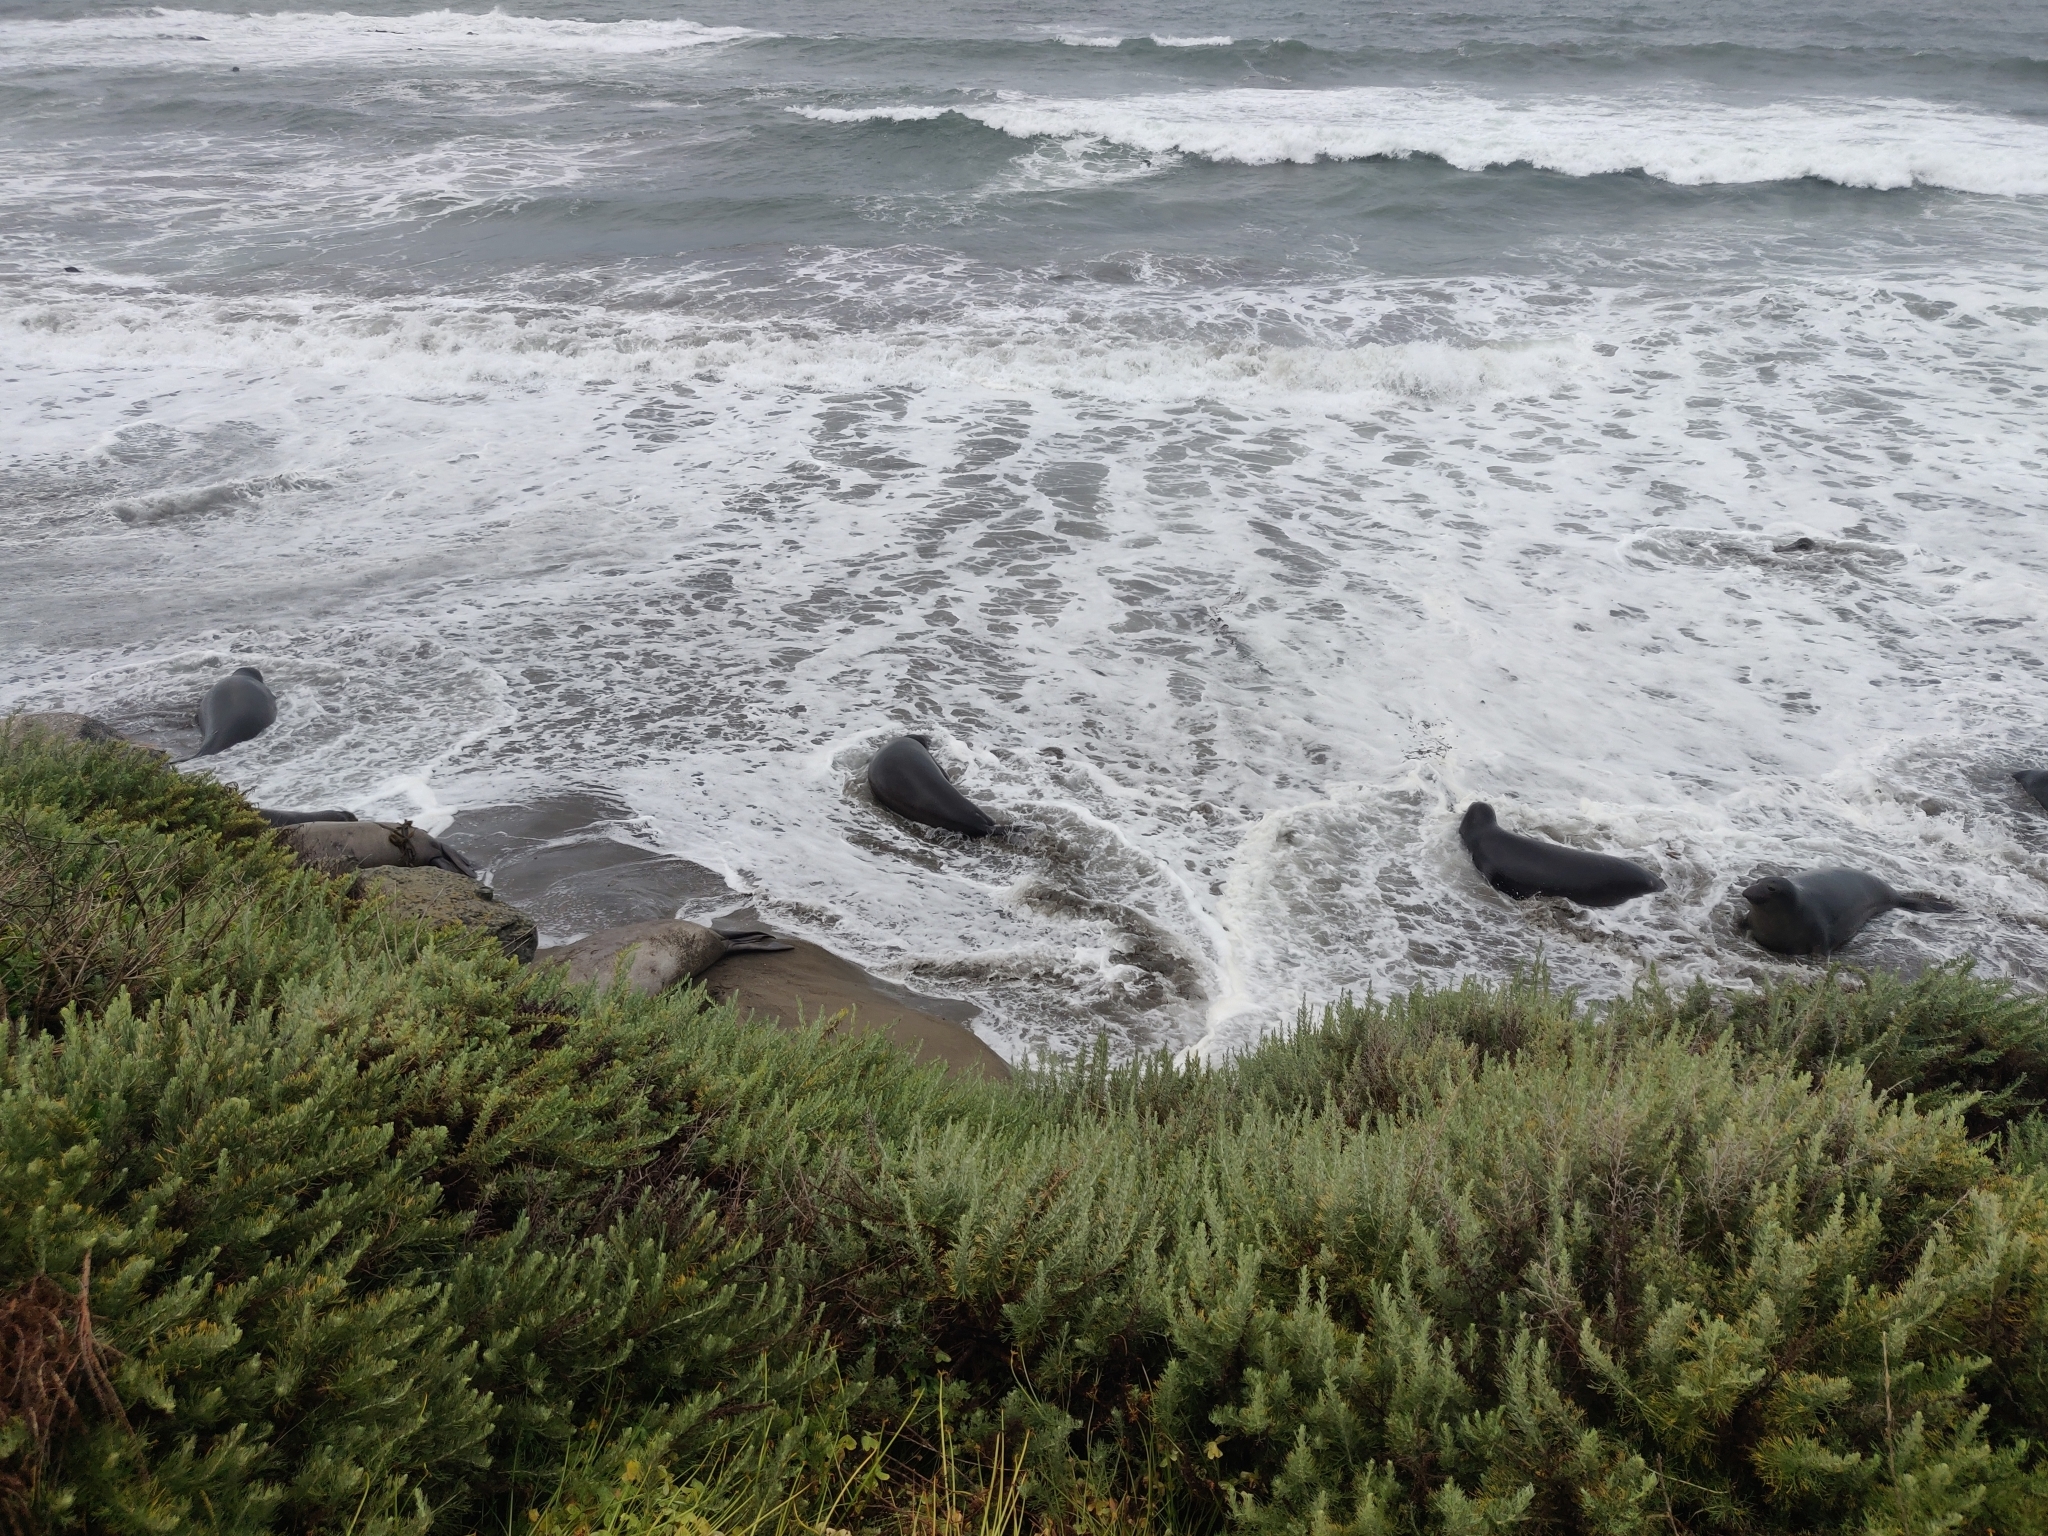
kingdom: Animalia
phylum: Chordata
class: Mammalia
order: Carnivora
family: Phocidae
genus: Mirounga
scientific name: Mirounga angustirostris
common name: Northern elephant seal
